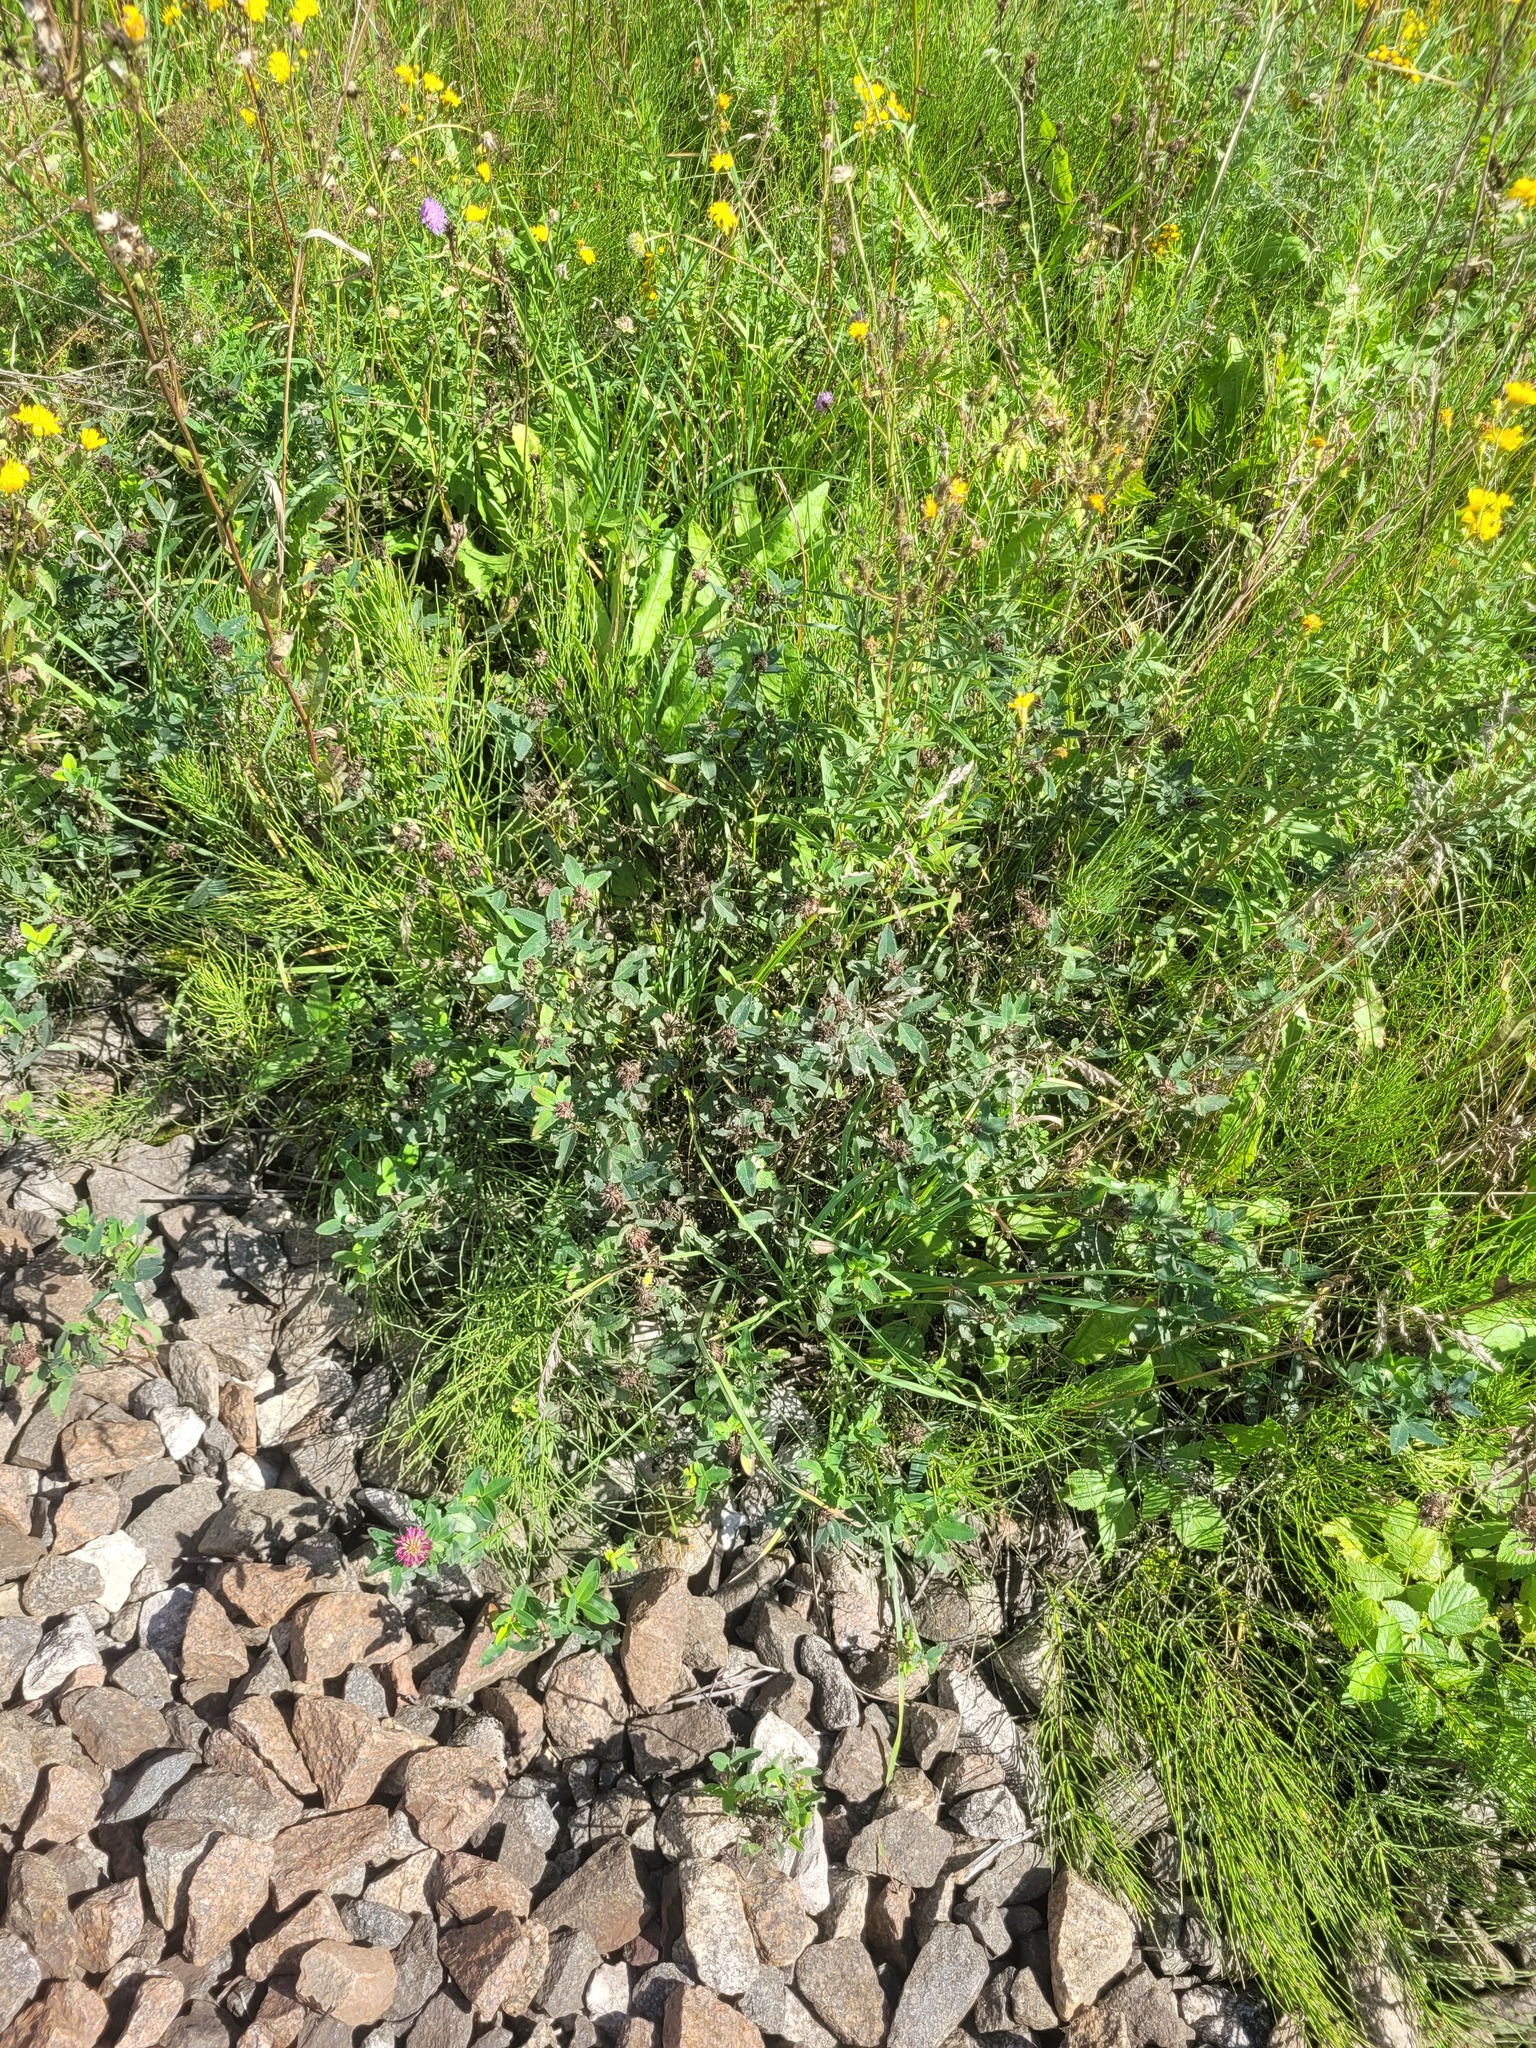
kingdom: Plantae
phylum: Tracheophyta
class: Magnoliopsida
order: Fabales
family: Fabaceae
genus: Trifolium
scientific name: Trifolium medium
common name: Zigzag clover
